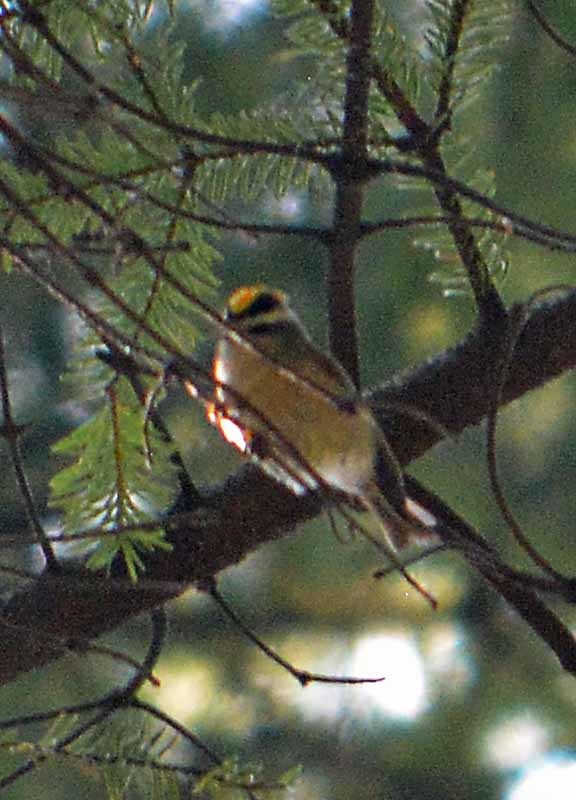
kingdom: Animalia
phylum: Chordata
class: Aves
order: Passeriformes
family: Regulidae
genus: Regulus
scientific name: Regulus satrapa
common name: Golden-crowned kinglet
